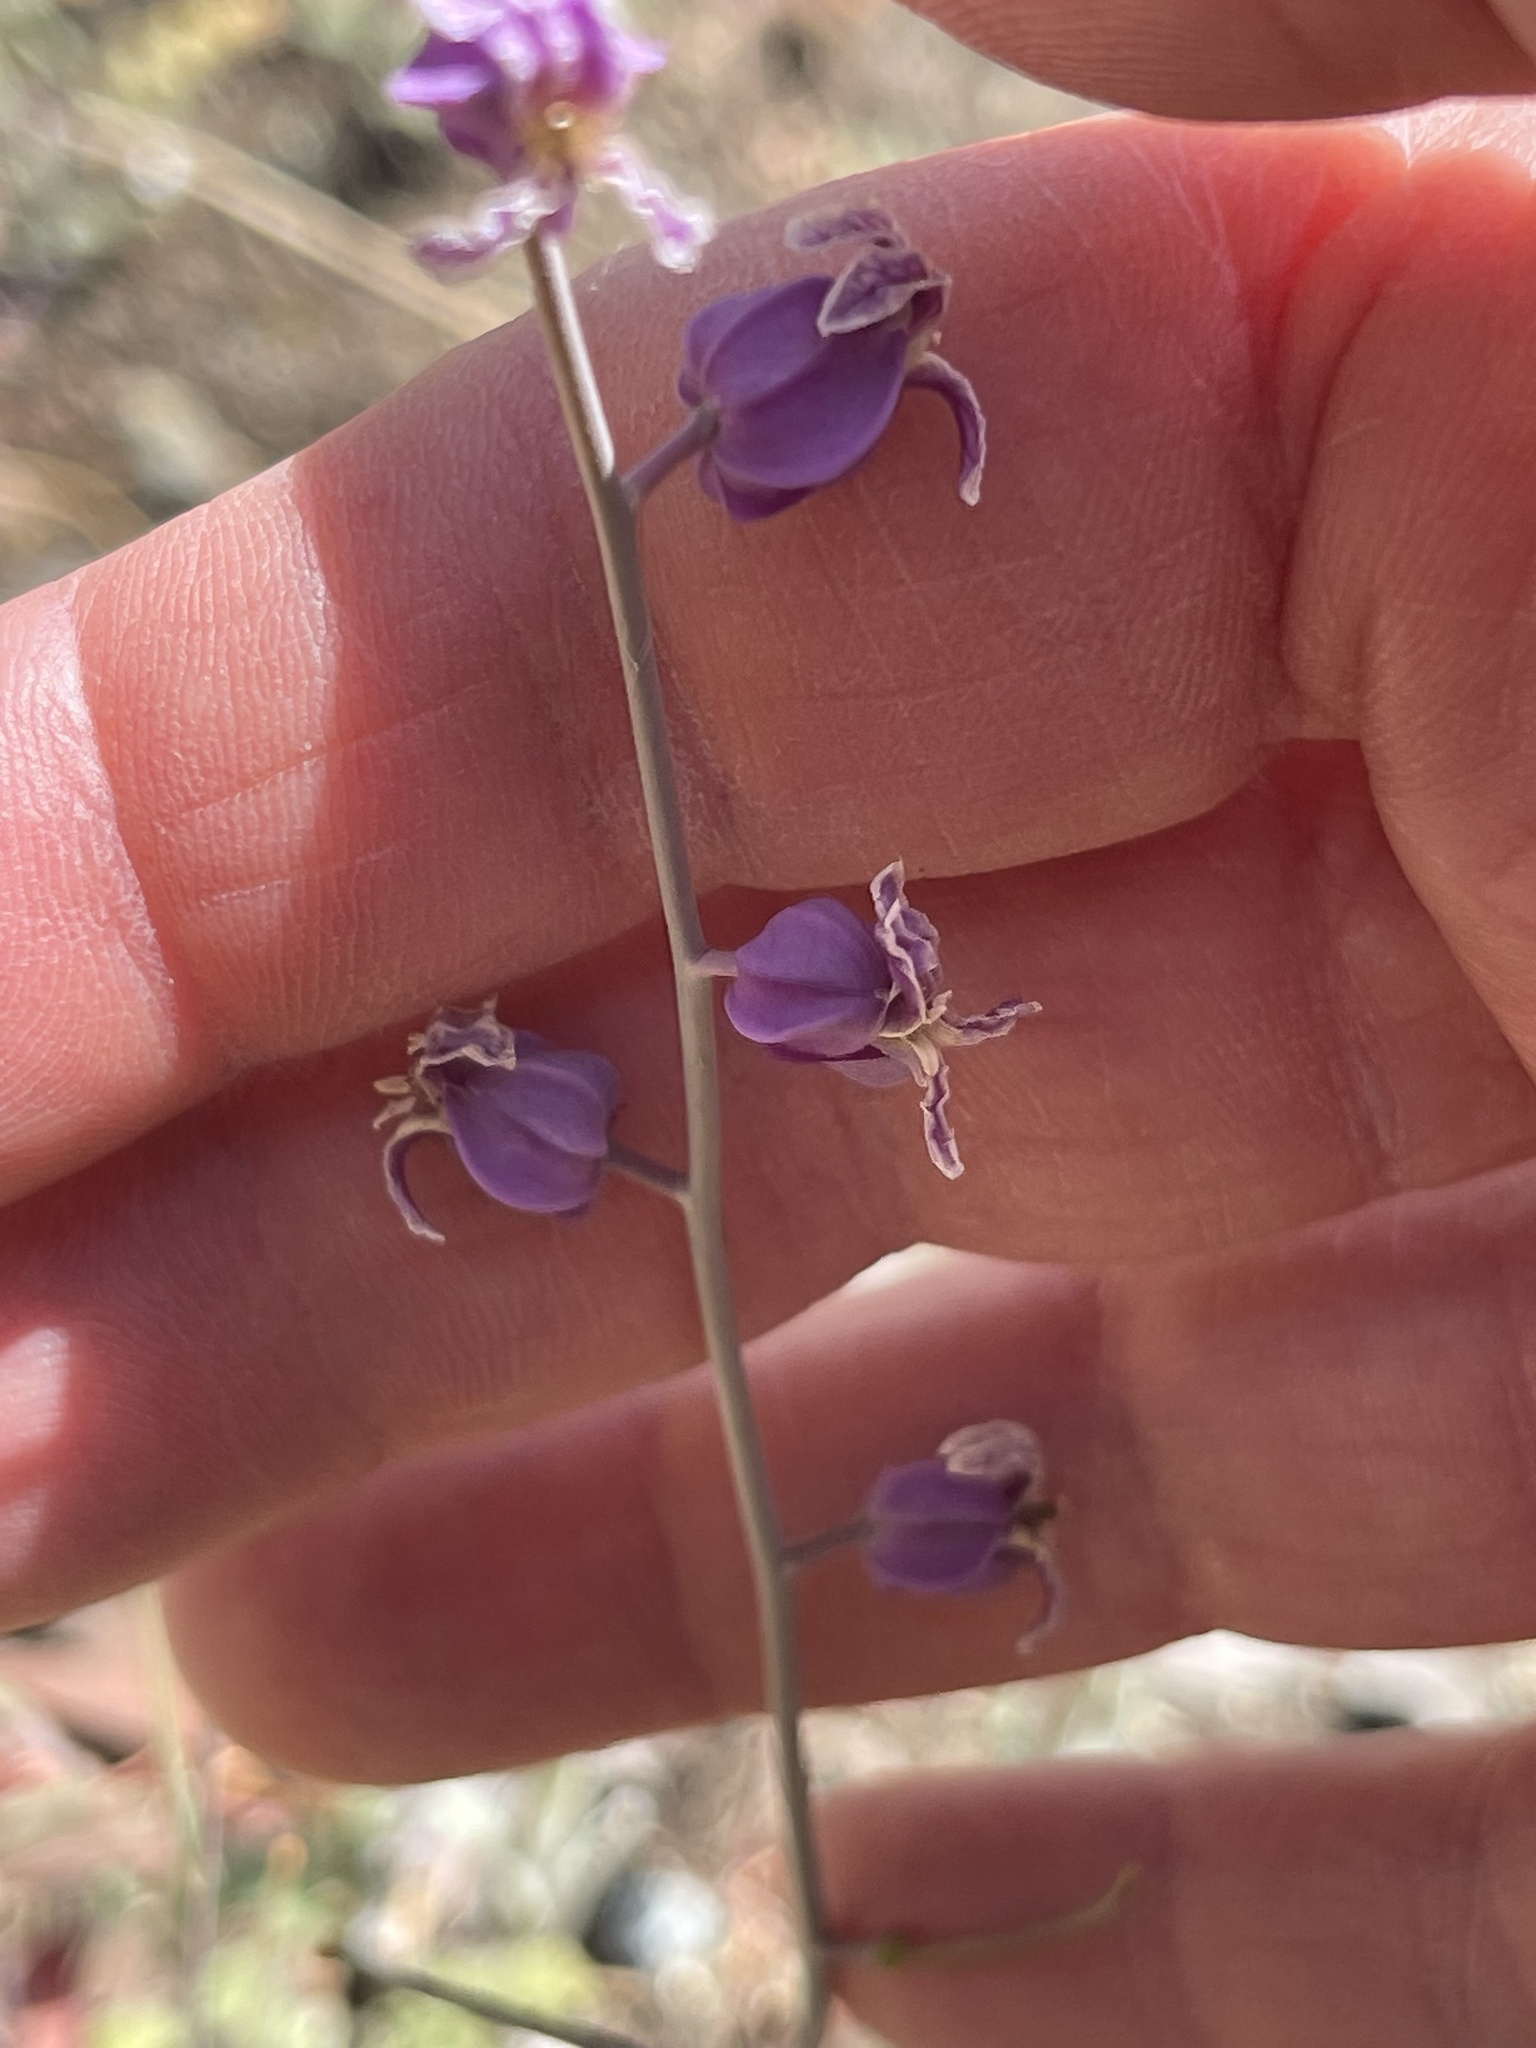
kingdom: Plantae
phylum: Tracheophyta
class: Magnoliopsida
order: Brassicales
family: Brassicaceae
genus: Streptanthus
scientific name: Streptanthus glandulosus
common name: Jewel-flower
